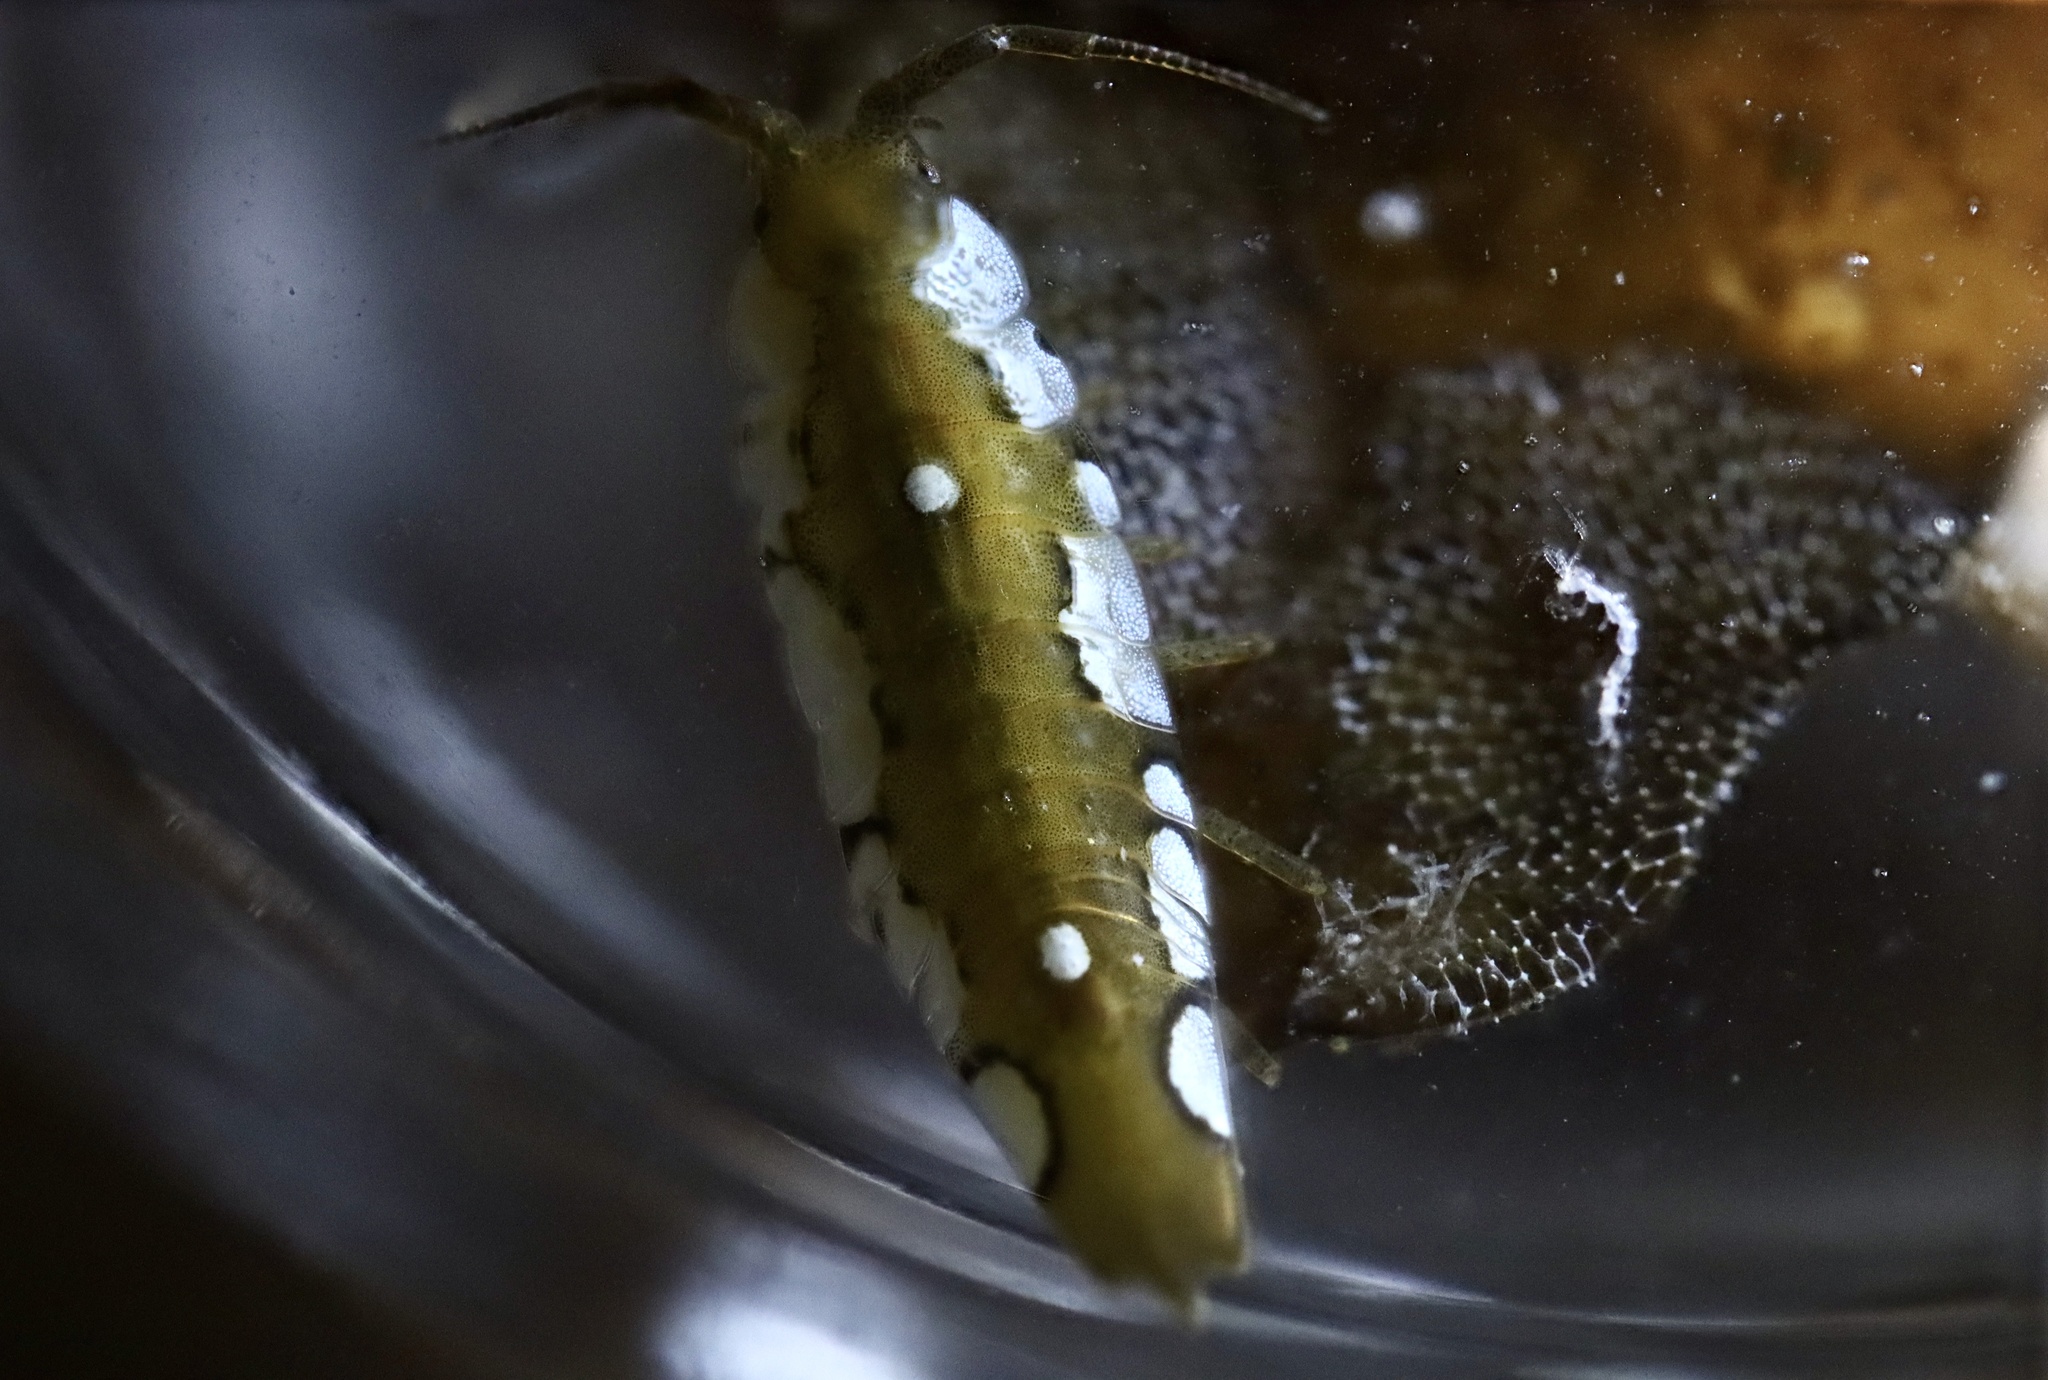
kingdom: Animalia
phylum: Arthropoda
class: Malacostraca
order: Isopoda
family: Idoteidae
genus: Idotea
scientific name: Idotea balthica
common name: Baltic isopod
